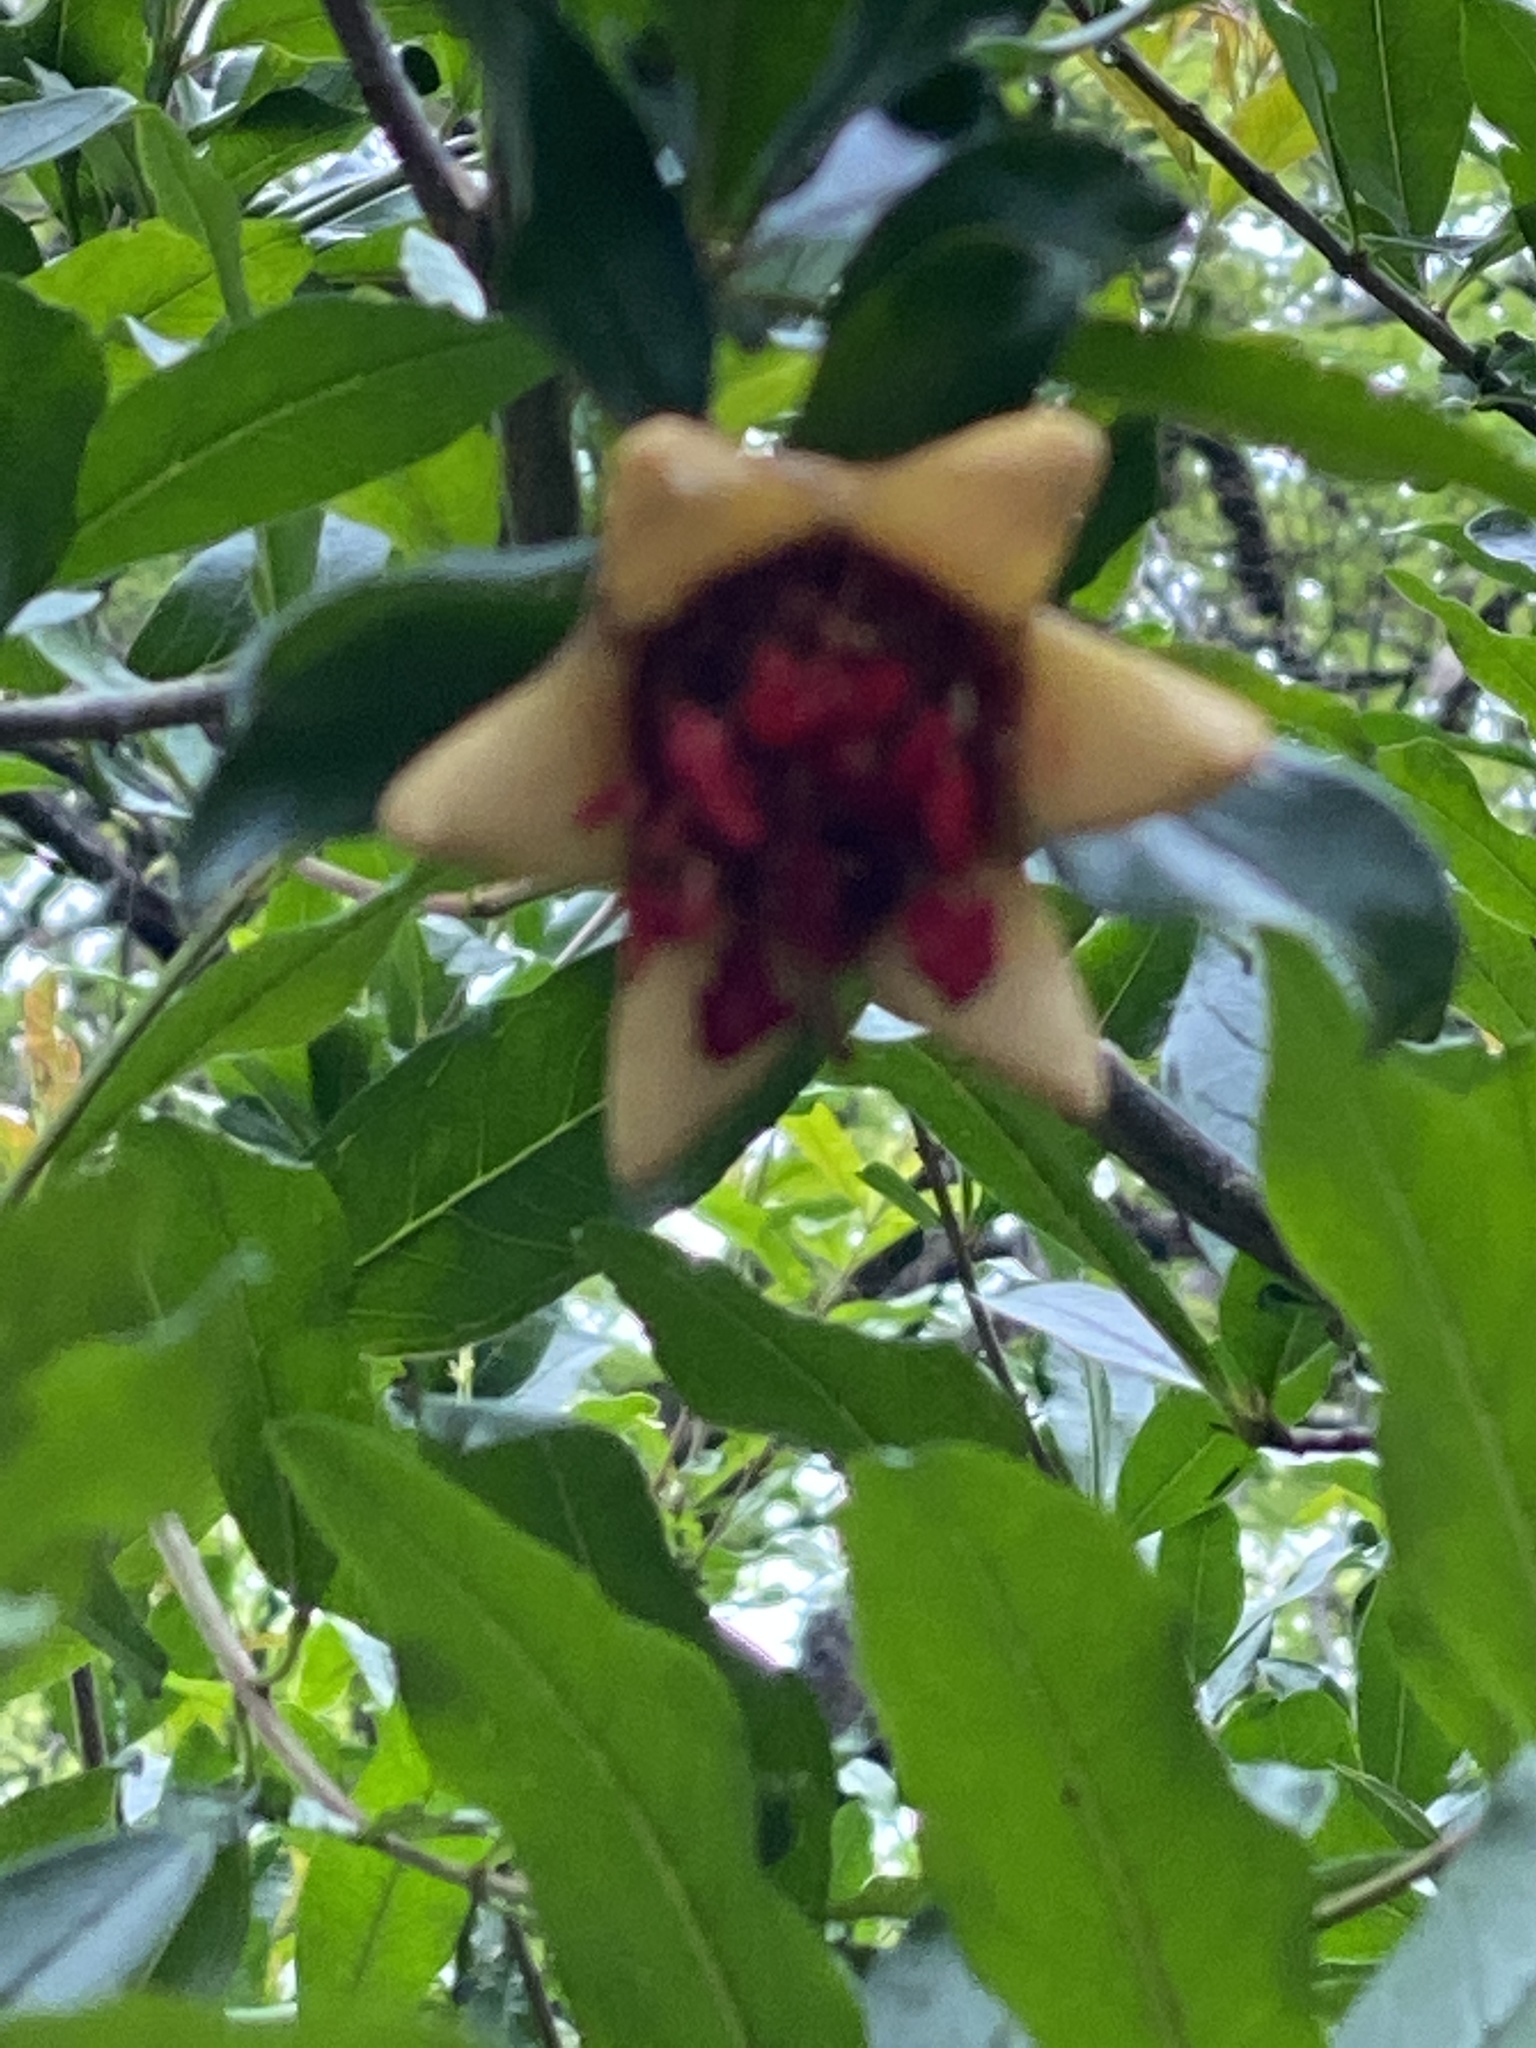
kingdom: Plantae
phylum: Tracheophyta
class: Magnoliopsida
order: Myrtales
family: Lythraceae
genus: Punica
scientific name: Punica granatum
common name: Pomegranate
